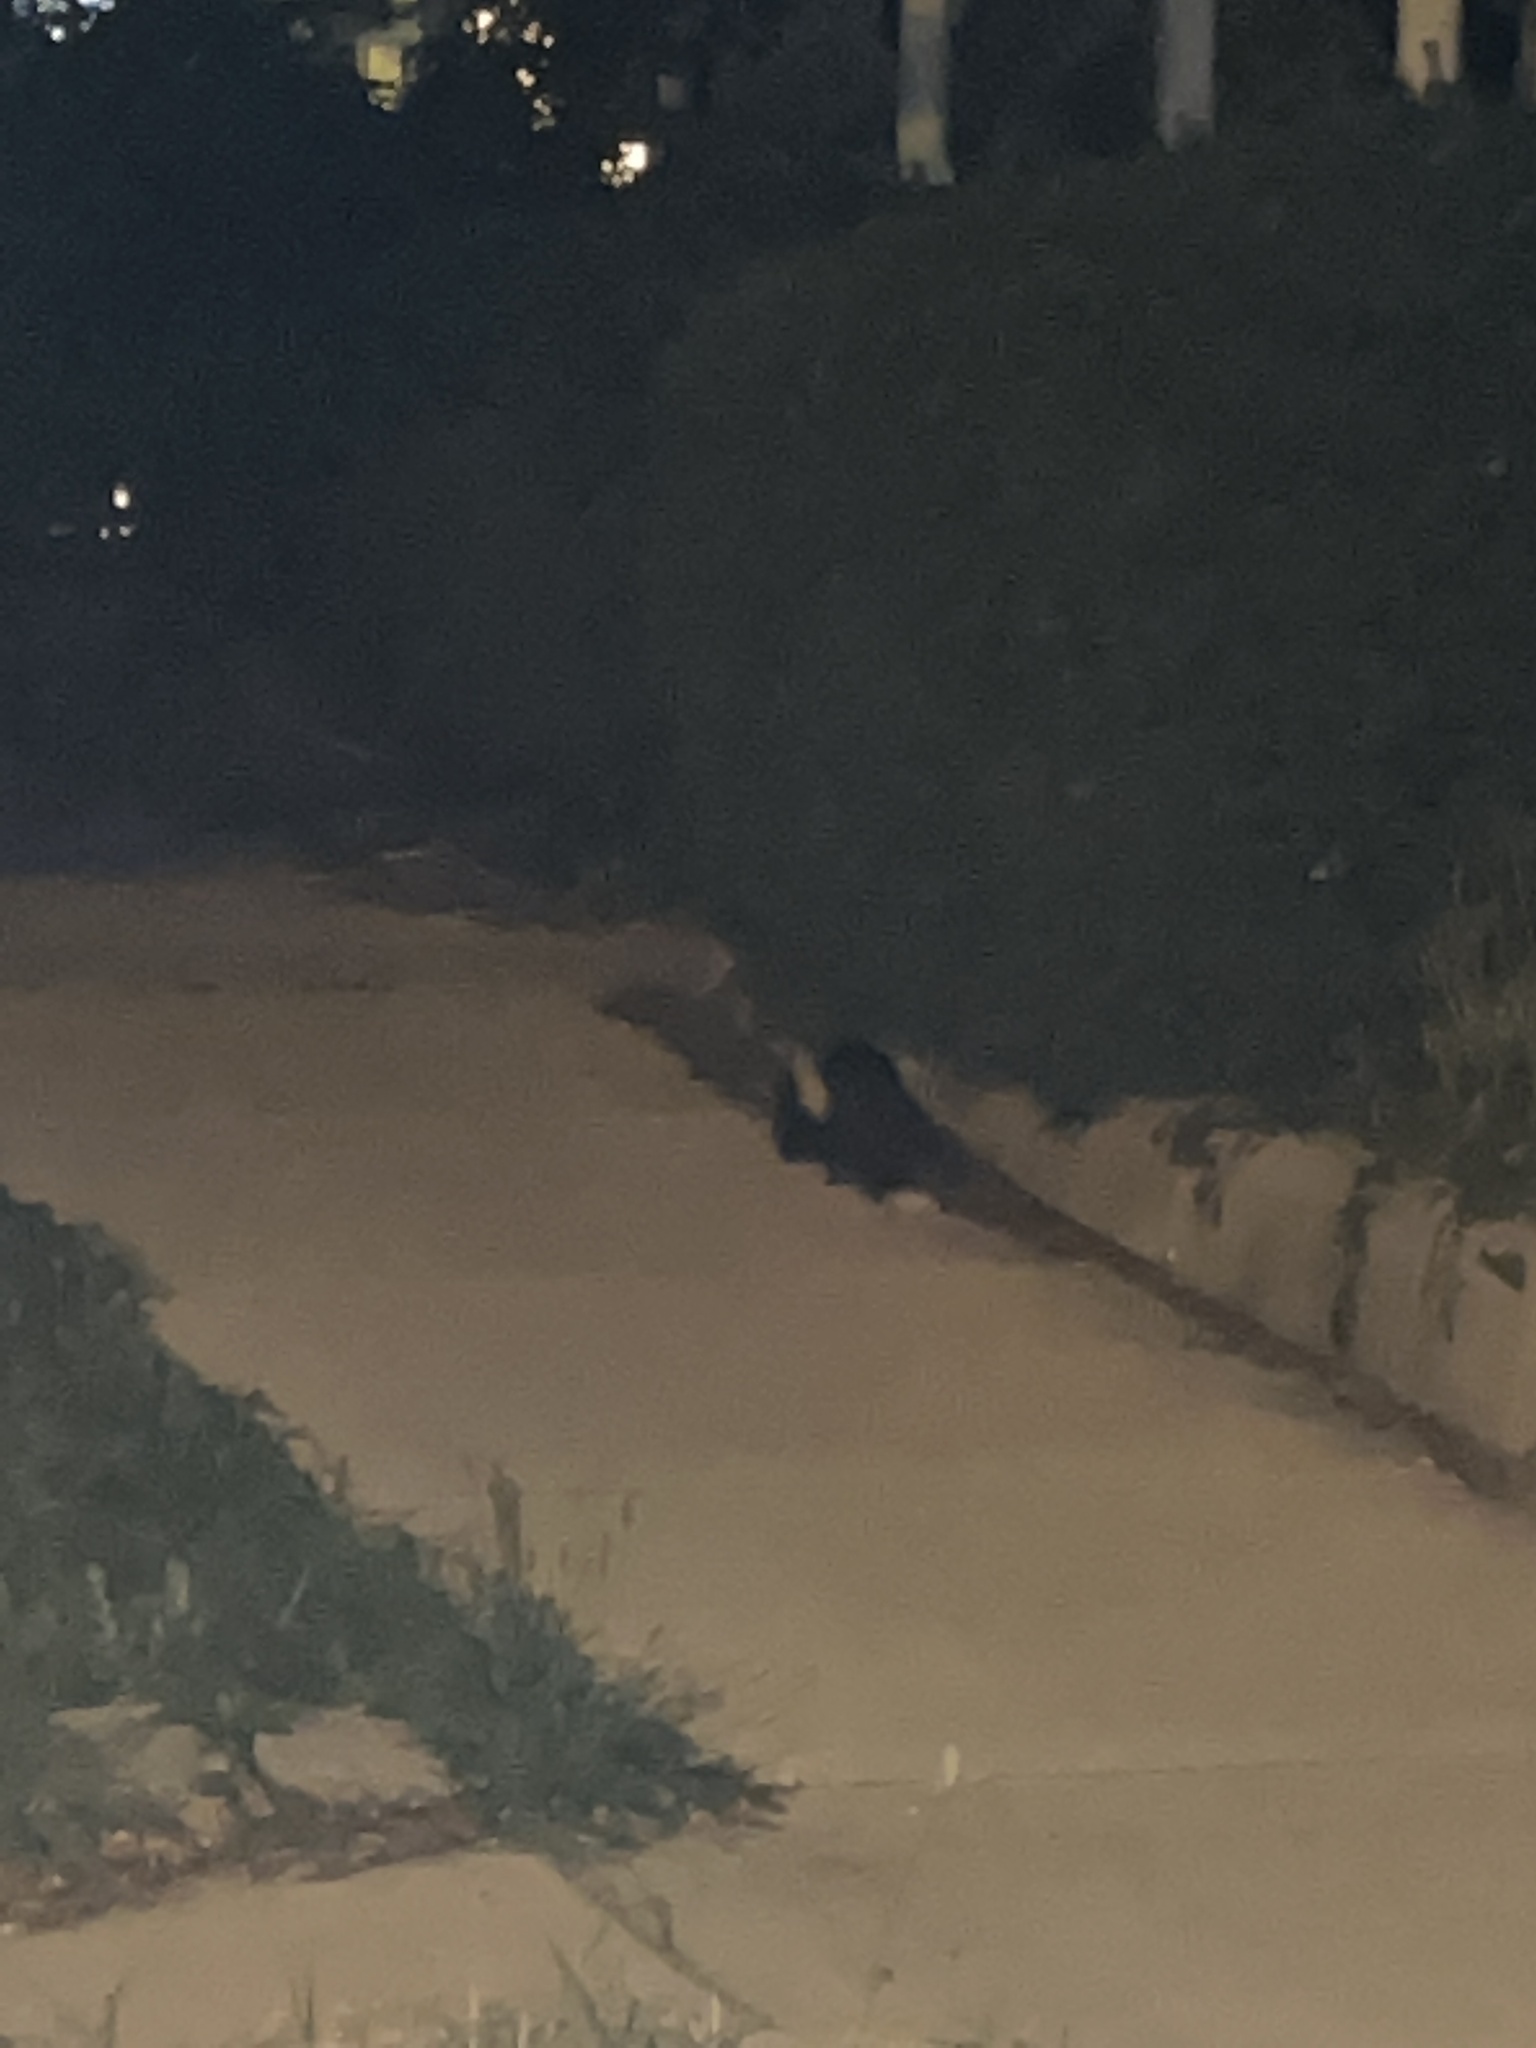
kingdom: Animalia
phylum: Chordata
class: Mammalia
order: Carnivora
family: Mephitidae
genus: Mephitis
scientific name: Mephitis mephitis
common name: Striped skunk
